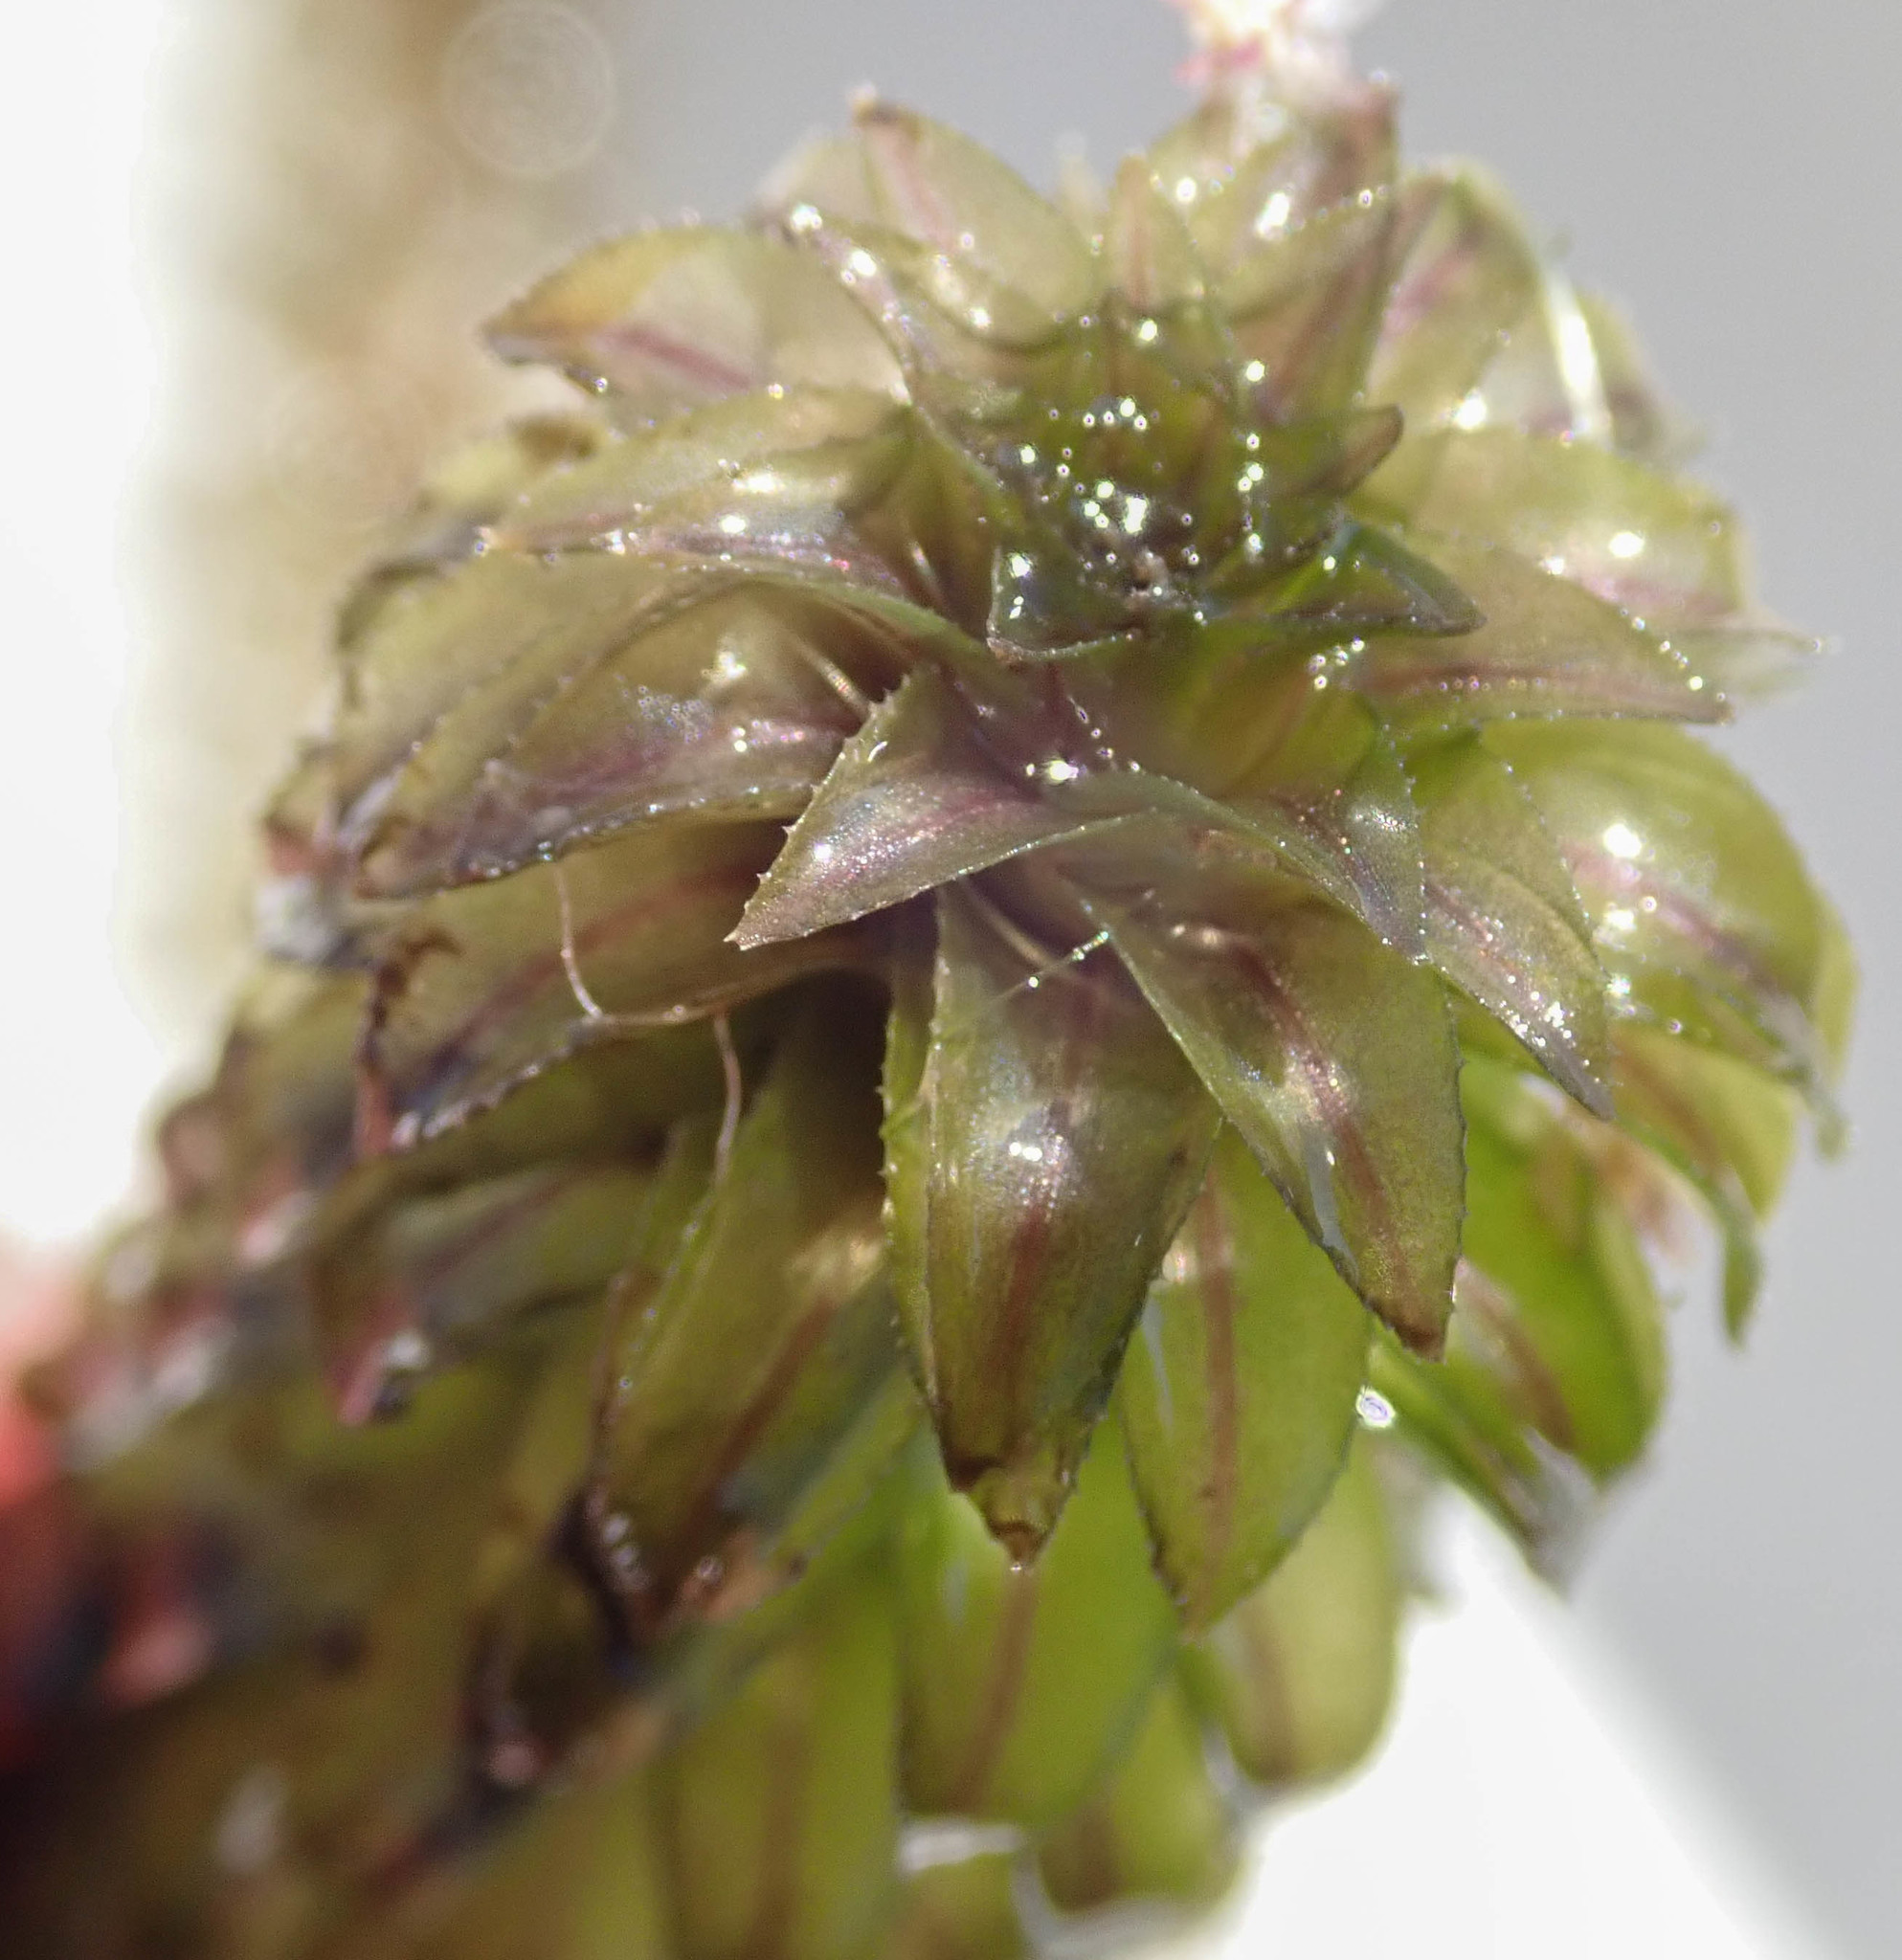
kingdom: Plantae
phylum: Tracheophyta
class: Liliopsida
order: Alismatales
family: Hydrocharitaceae
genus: Lagarosiphon
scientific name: Lagarosiphon ilicifolius
